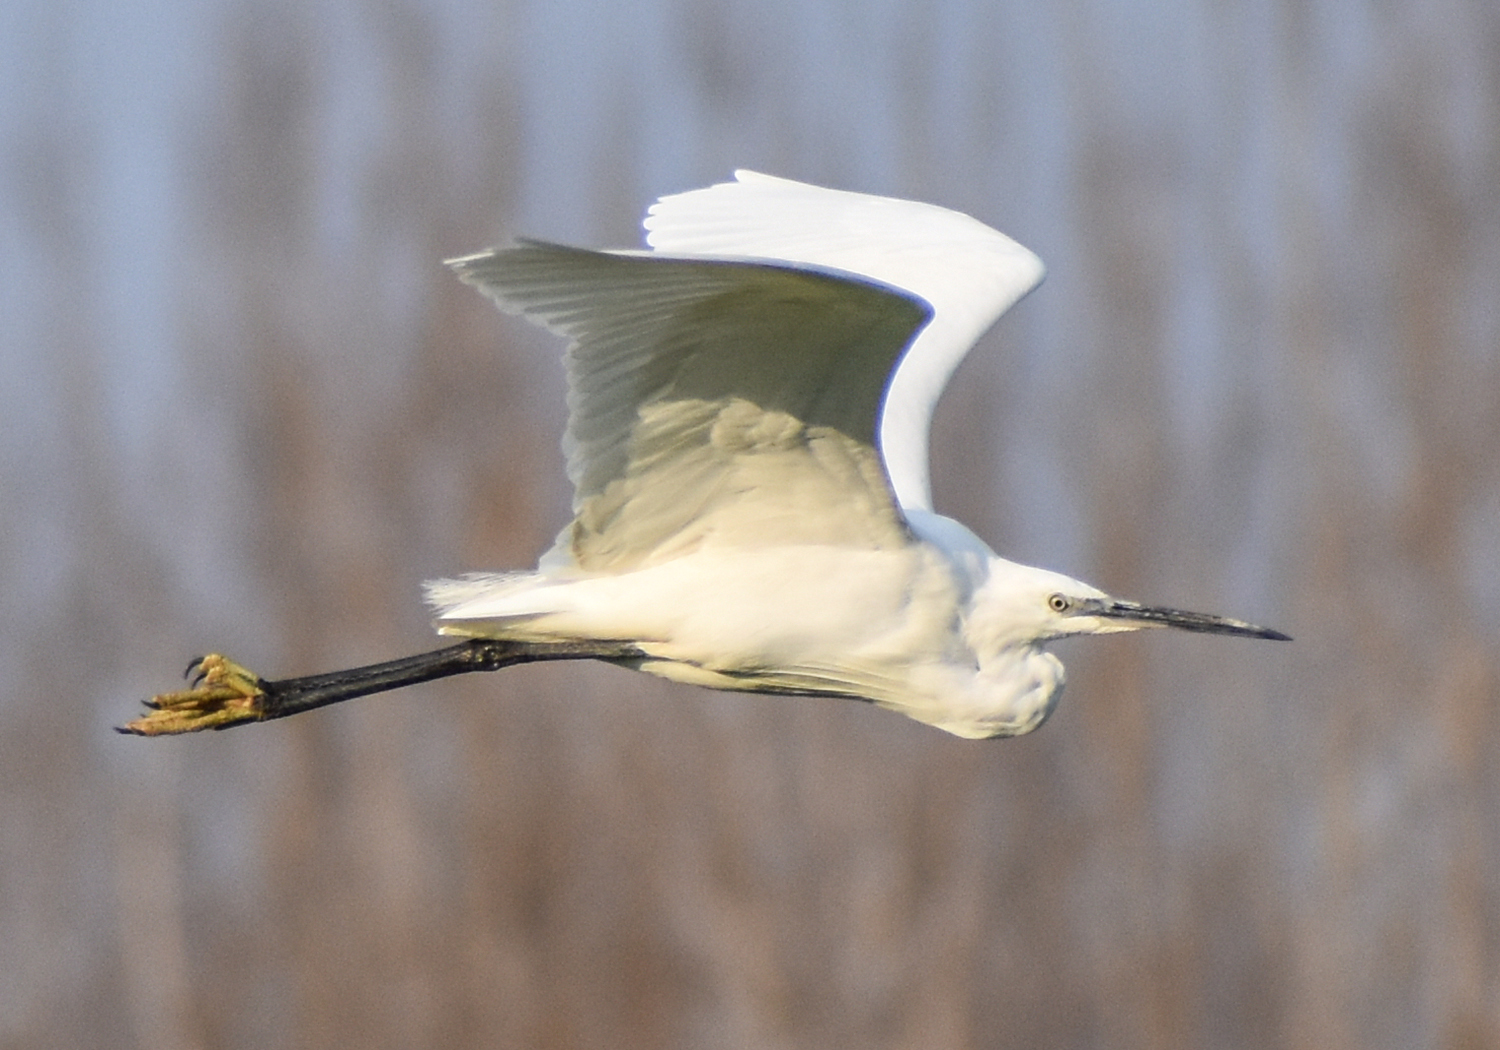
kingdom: Animalia
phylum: Chordata
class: Aves
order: Pelecaniformes
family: Ardeidae
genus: Egretta
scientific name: Egretta garzetta
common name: Little egret
